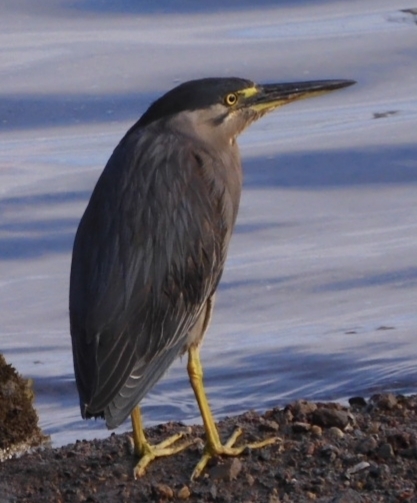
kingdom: Animalia
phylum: Chordata
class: Aves
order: Pelecaniformes
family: Ardeidae
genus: Butorides
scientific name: Butorides striata
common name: Striated heron
